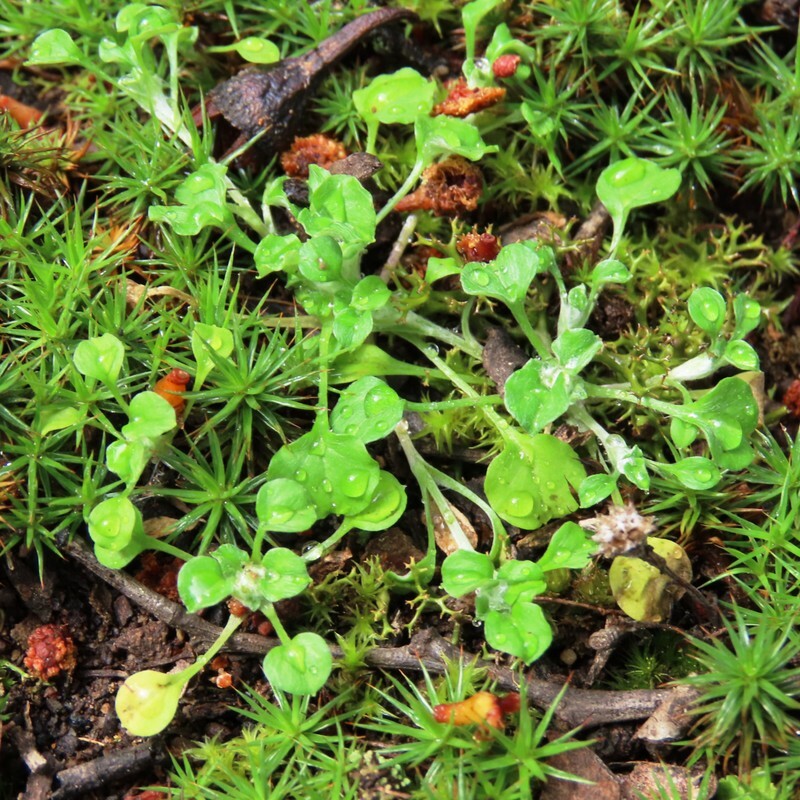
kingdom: Plantae
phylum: Tracheophyta
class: Magnoliopsida
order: Asterales
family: Asteraceae
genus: Stuartina
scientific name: Stuartina muelleri
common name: Spoon-leaved cudweed
